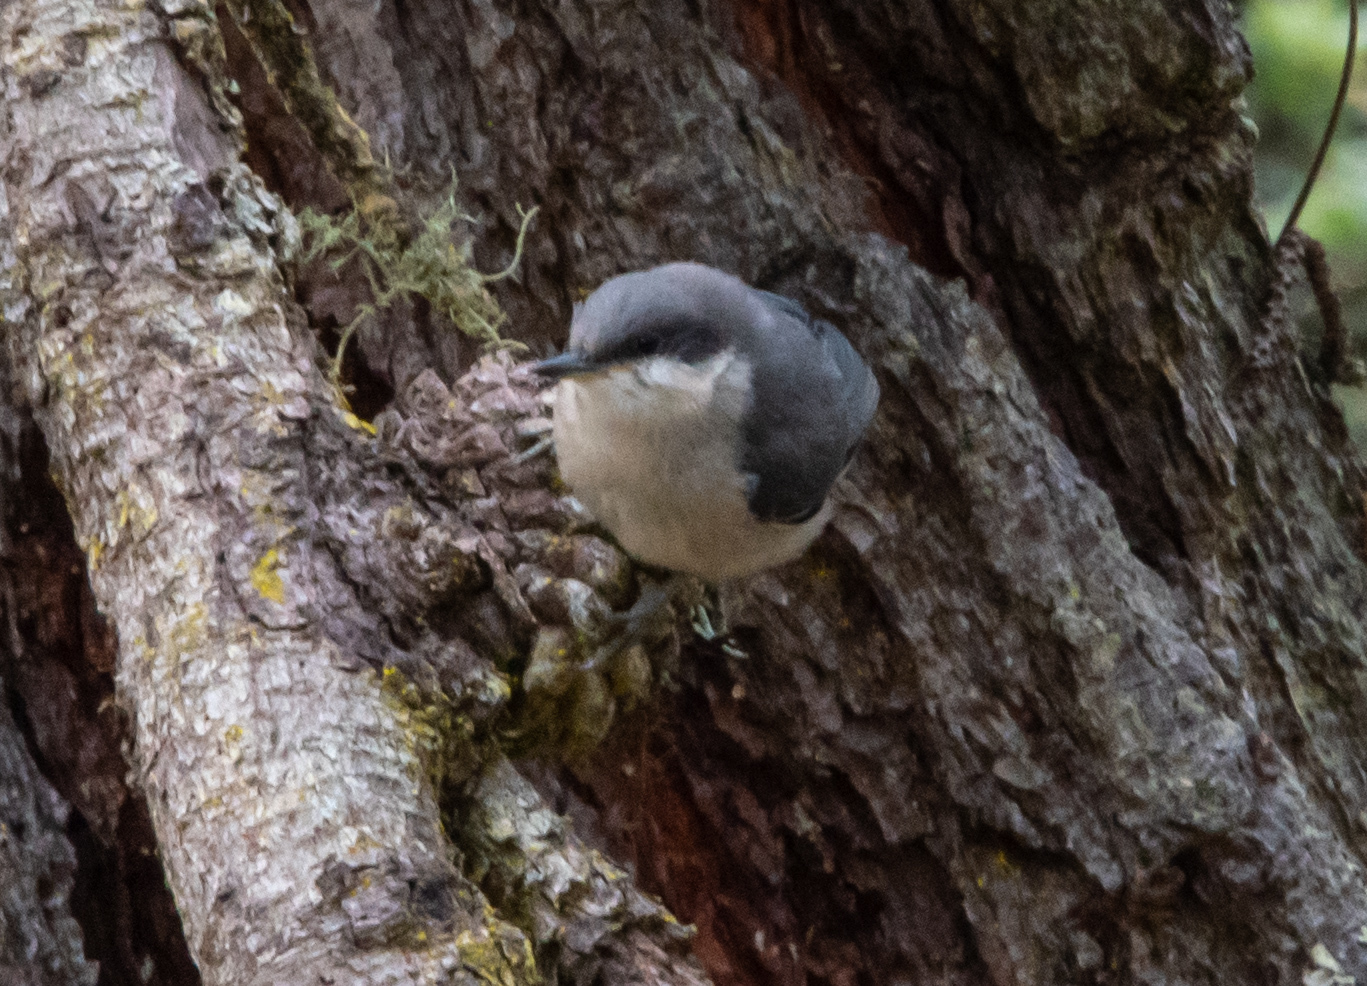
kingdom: Animalia
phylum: Chordata
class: Aves
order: Passeriformes
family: Sittidae
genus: Sitta
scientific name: Sitta pygmaea
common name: Pygmy nuthatch
